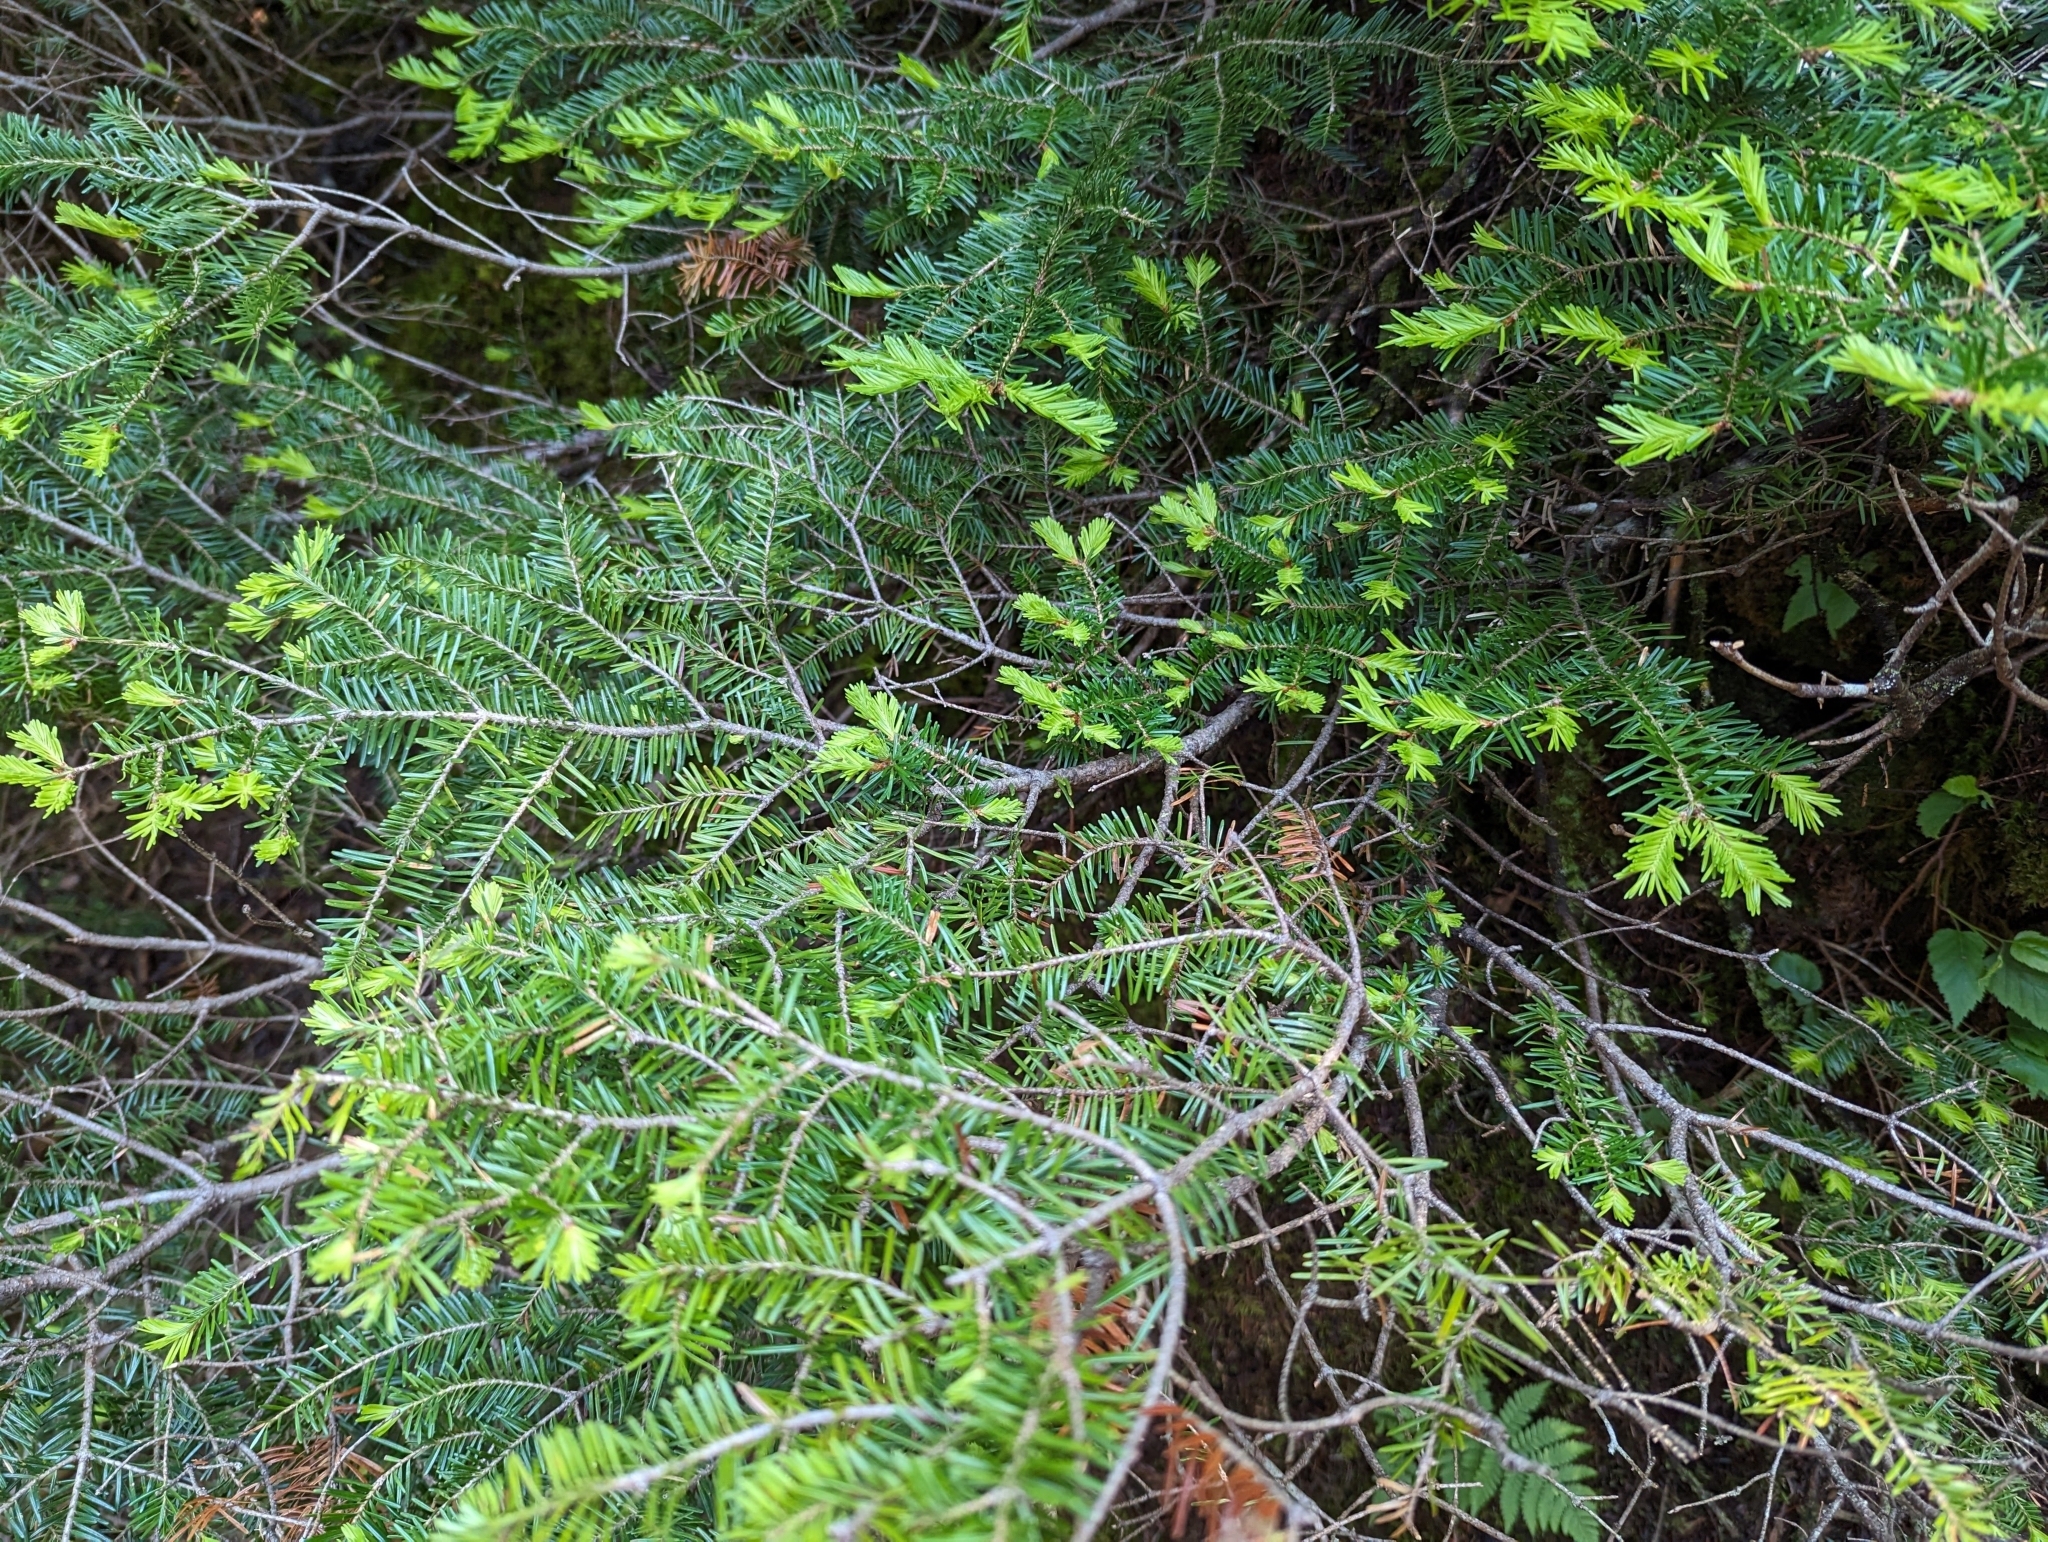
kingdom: Plantae
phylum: Tracheophyta
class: Pinopsida
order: Pinales
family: Pinaceae
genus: Abies
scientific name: Abies balsamea
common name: Balsam fir
